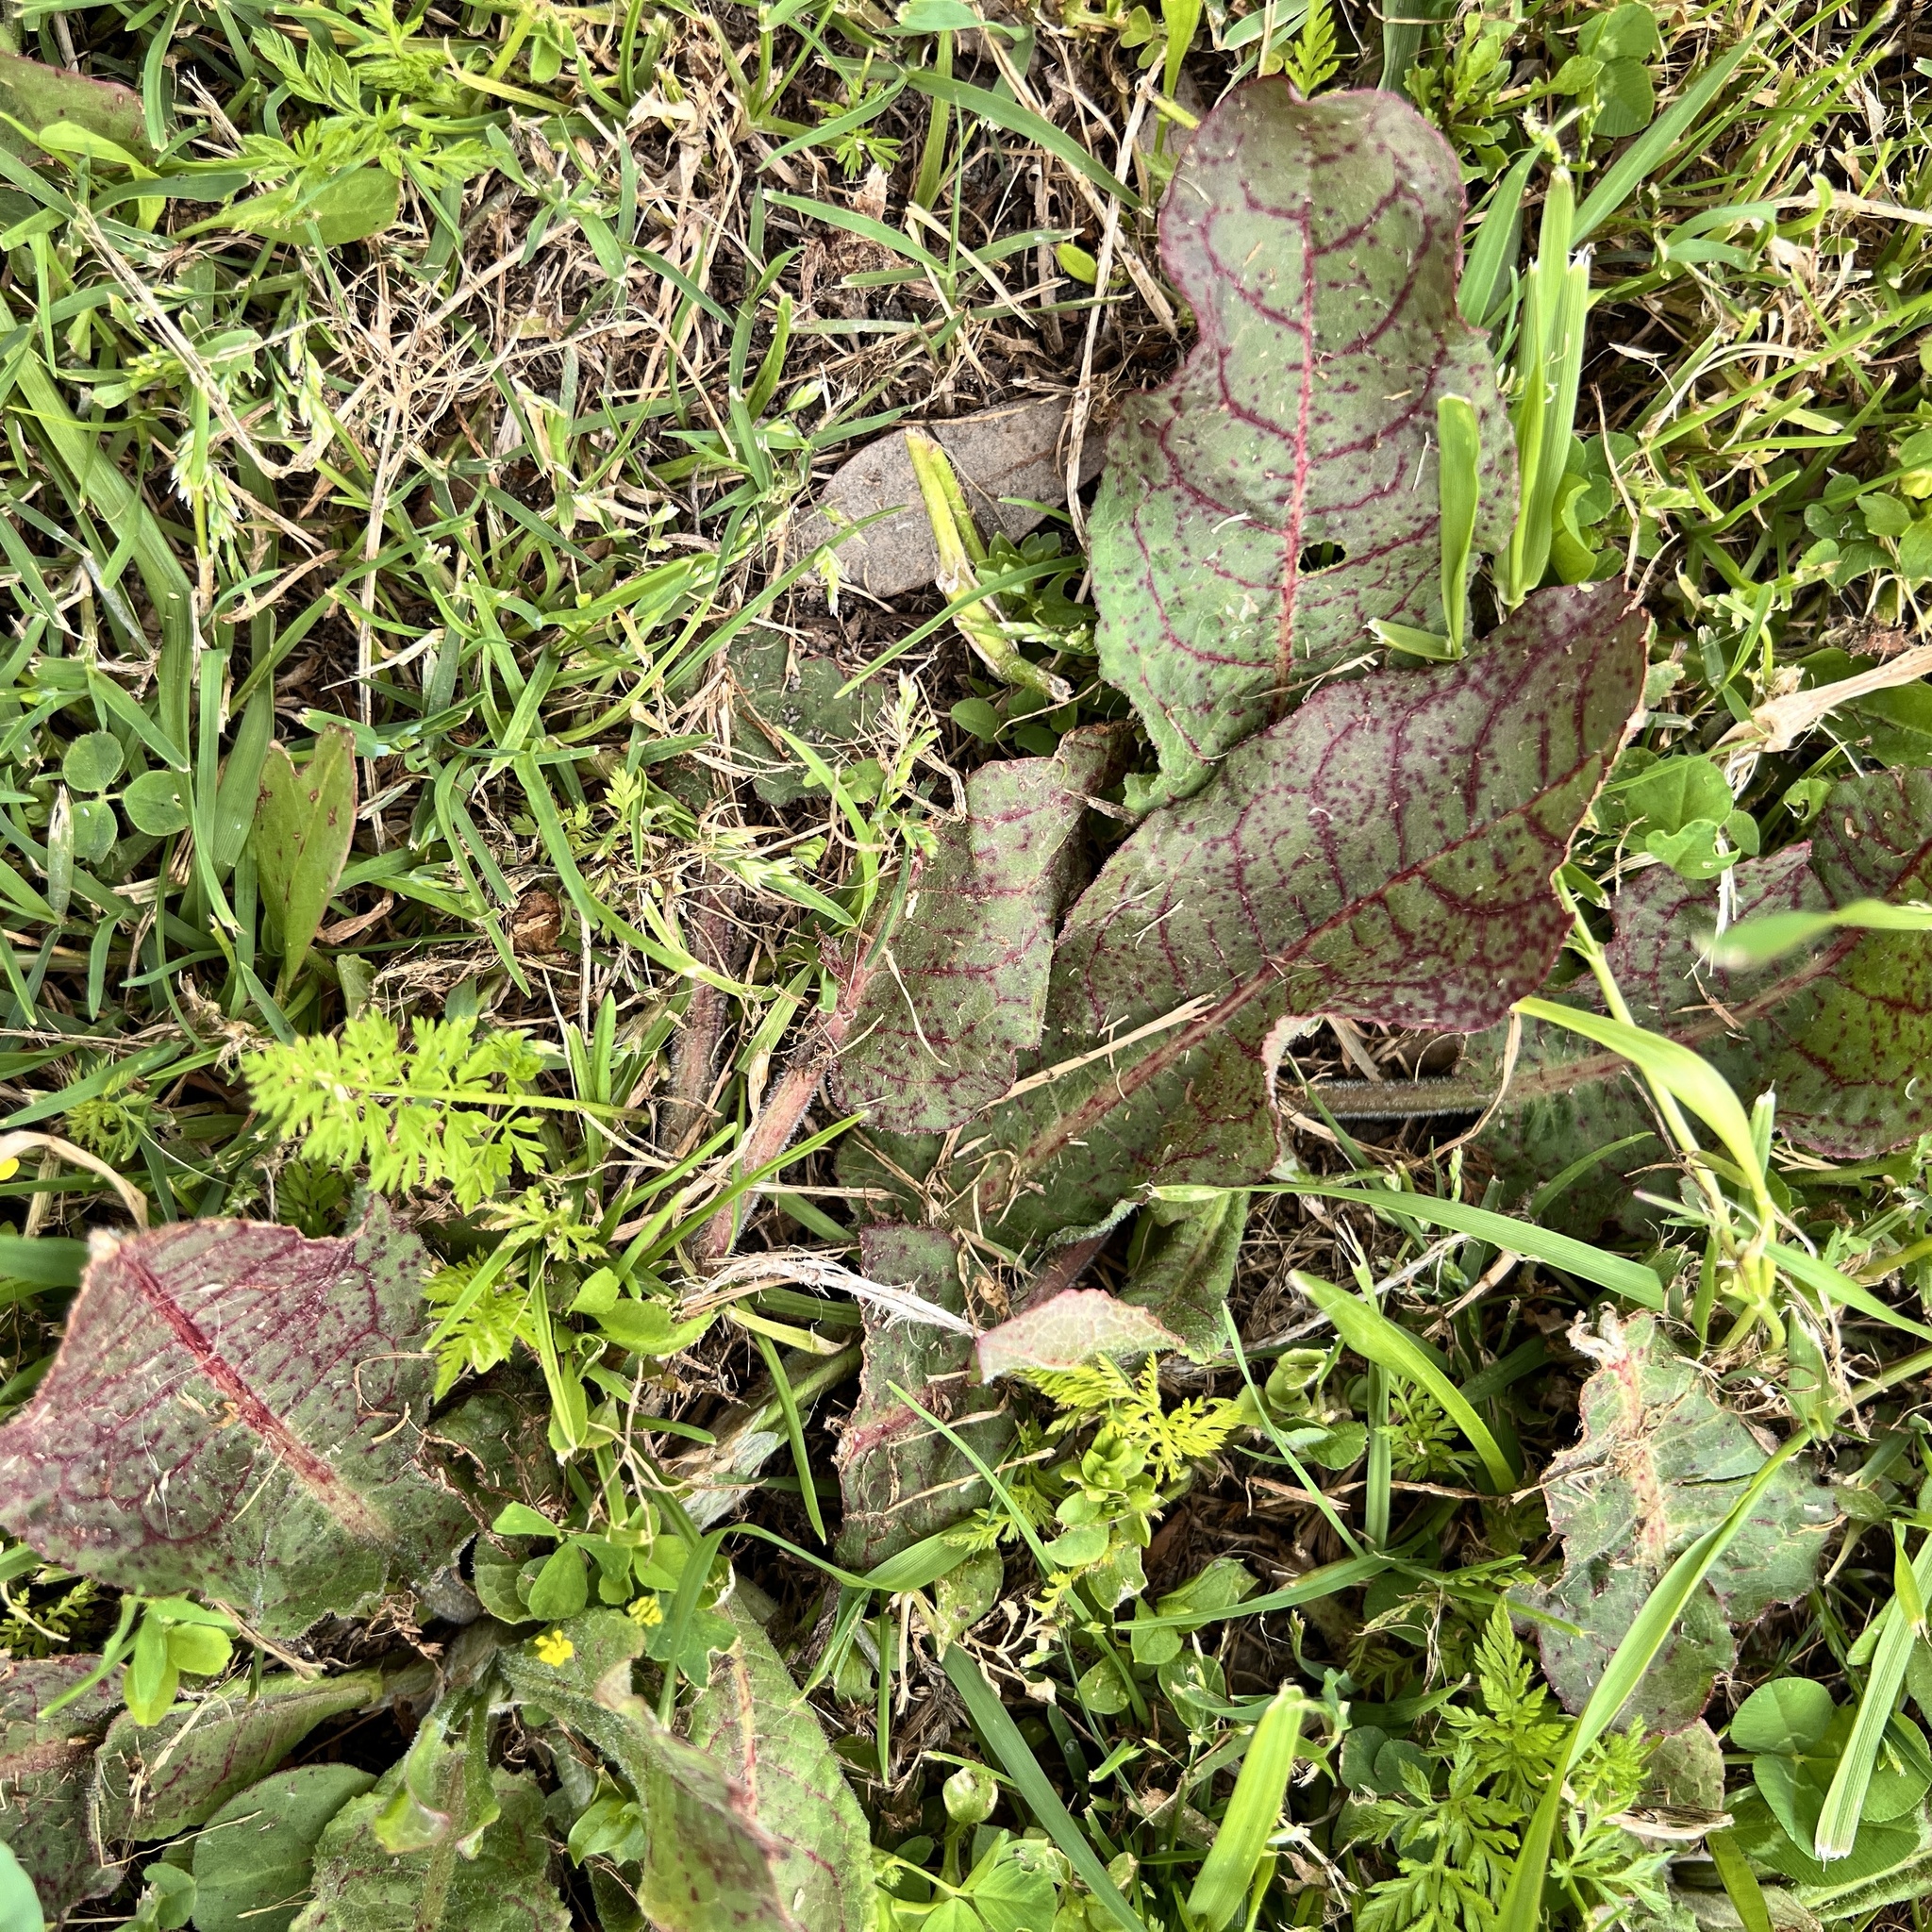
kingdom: Plantae
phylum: Tracheophyta
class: Magnoliopsida
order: Caryophyllales
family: Polygonaceae
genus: Rumex
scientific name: Rumex crispus
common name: Curled dock
